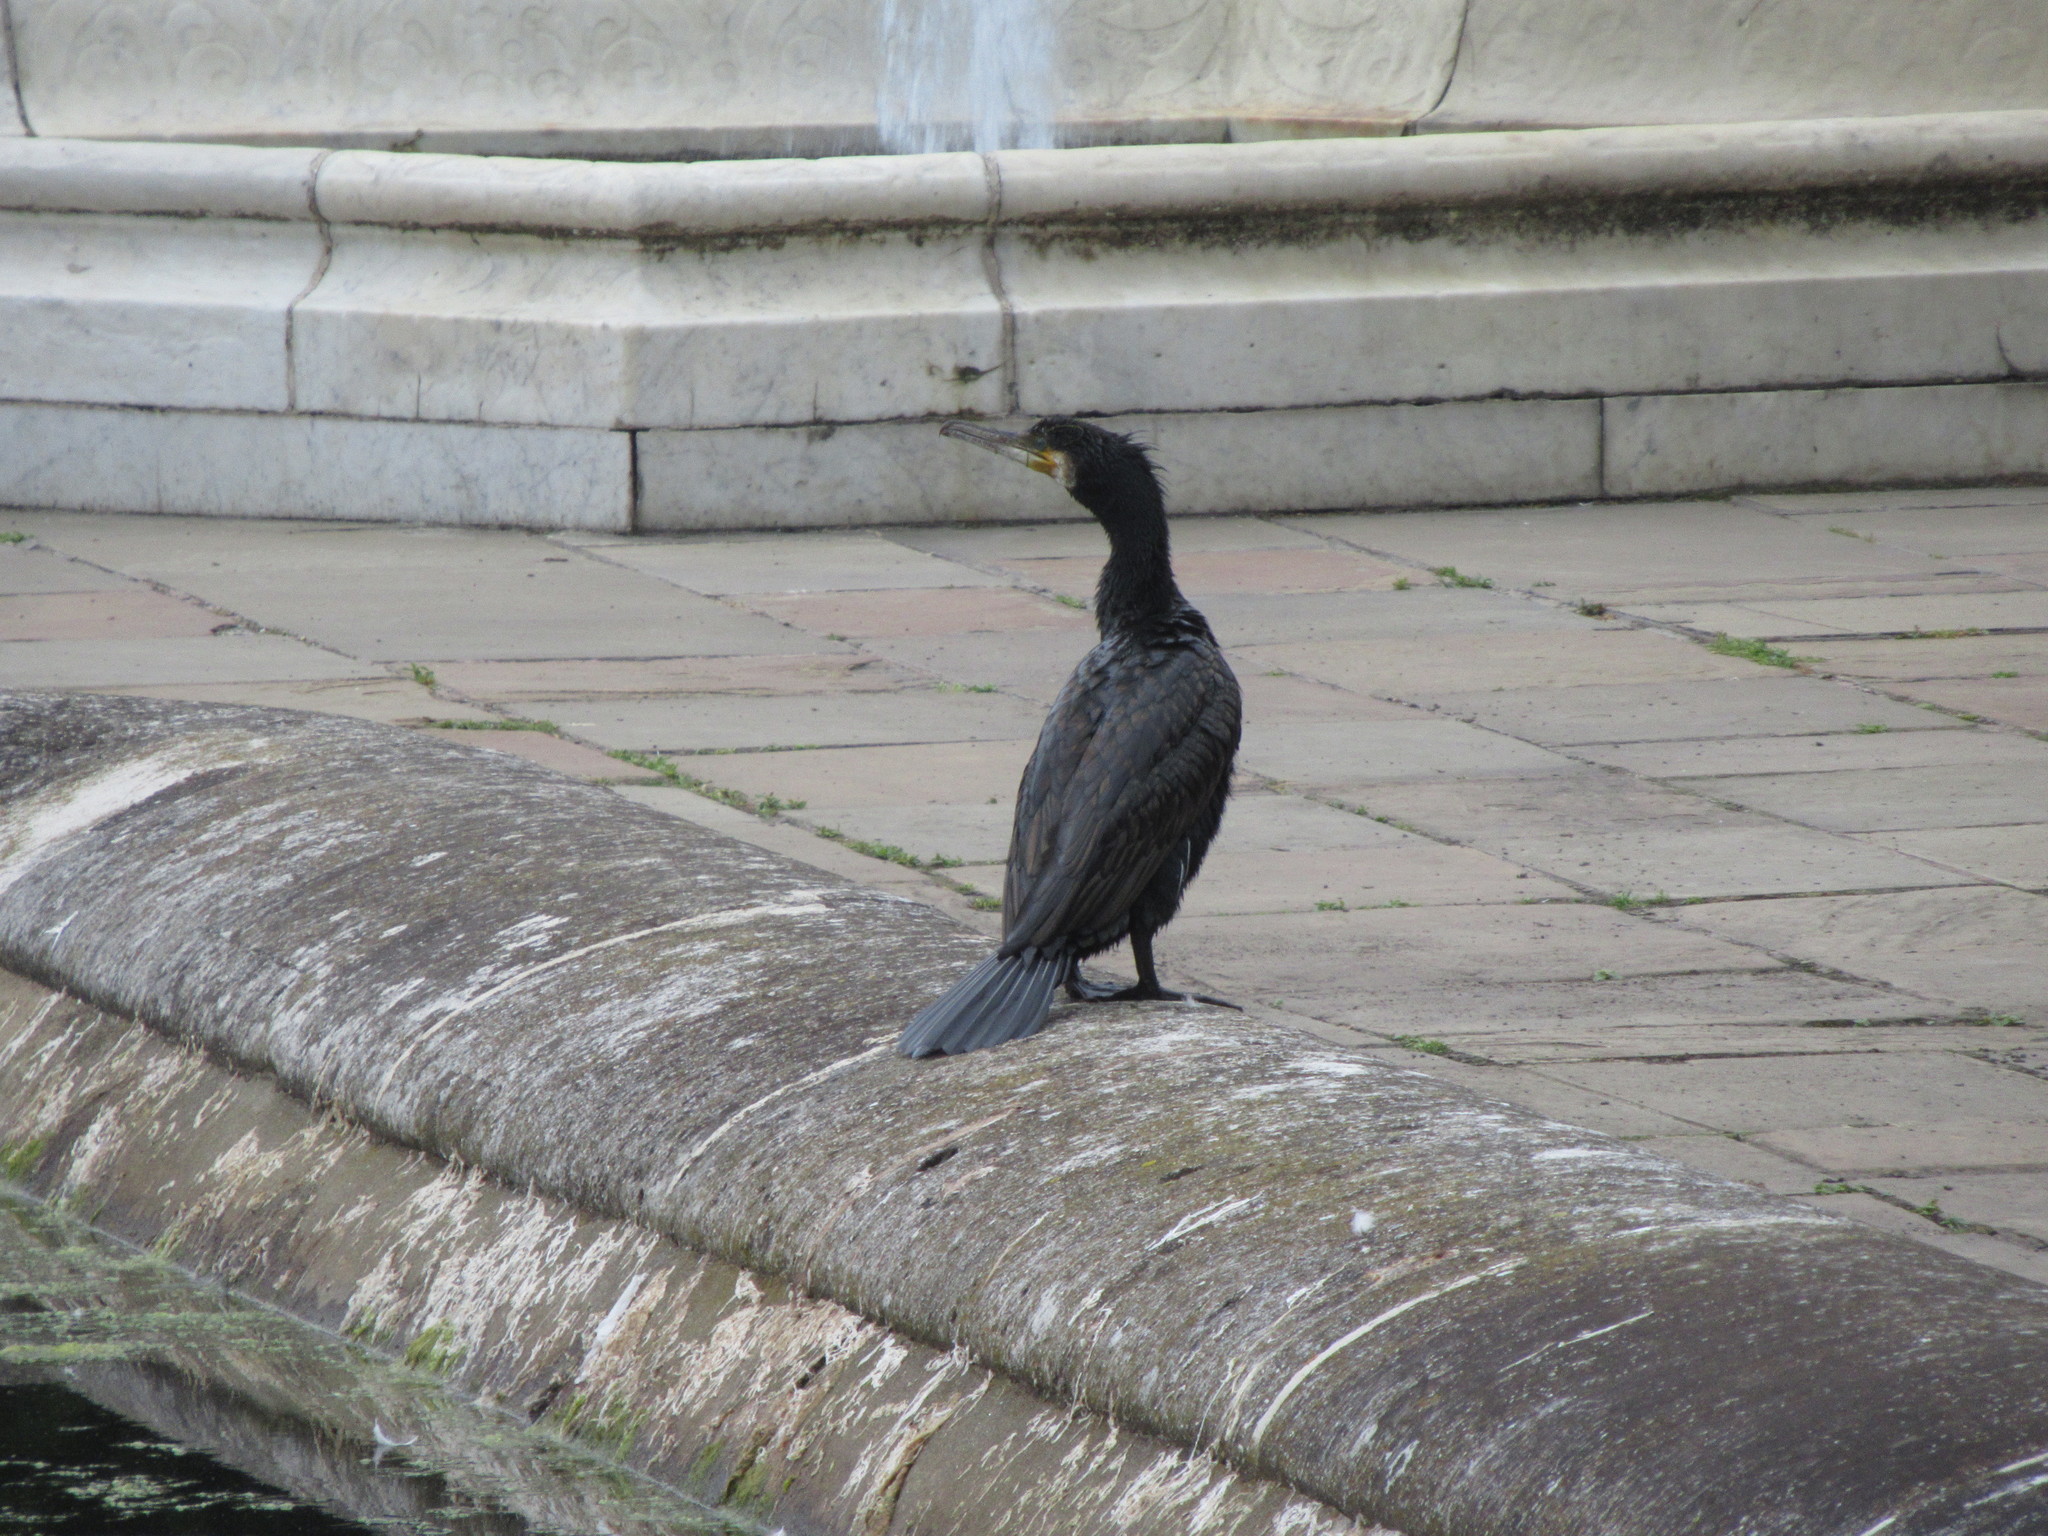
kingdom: Animalia
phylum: Chordata
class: Aves
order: Suliformes
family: Phalacrocoracidae
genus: Phalacrocorax
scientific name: Phalacrocorax carbo
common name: Great cormorant
